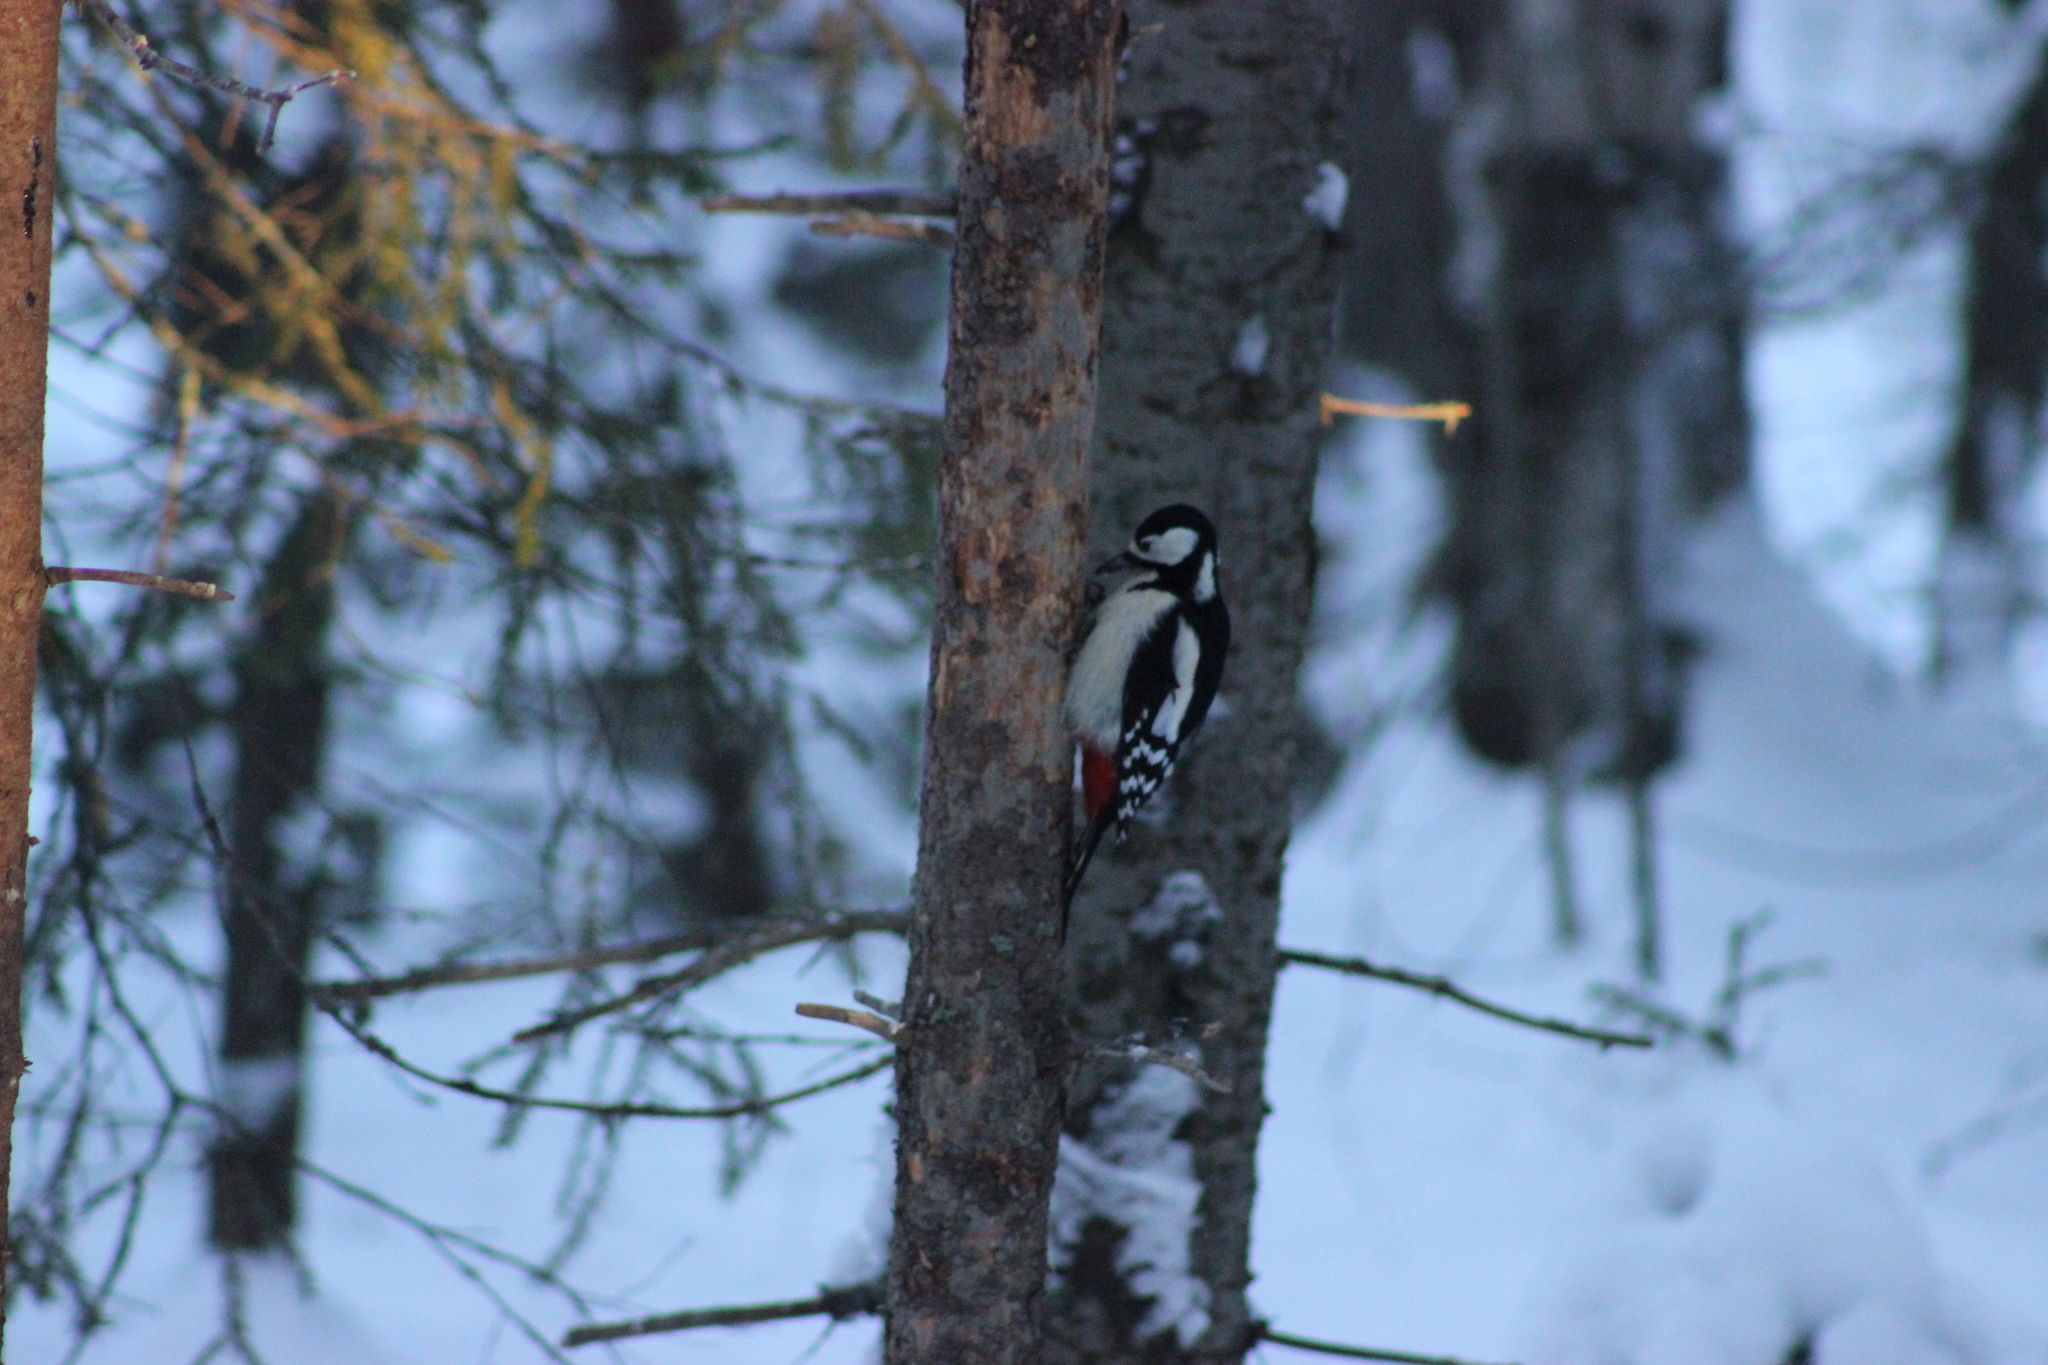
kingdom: Animalia
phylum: Chordata
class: Aves
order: Piciformes
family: Picidae
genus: Dendrocopos
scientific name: Dendrocopos major
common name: Great spotted woodpecker
